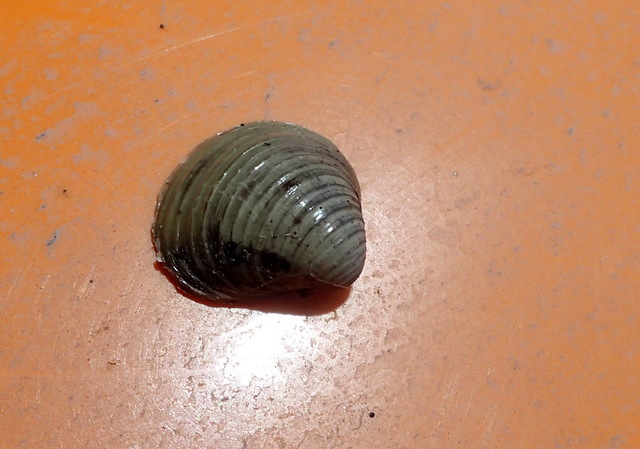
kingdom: Animalia
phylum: Mollusca
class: Bivalvia
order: Venerida
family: Cyrenidae
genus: Corbicula
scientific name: Corbicula fluminea
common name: Asian clam
